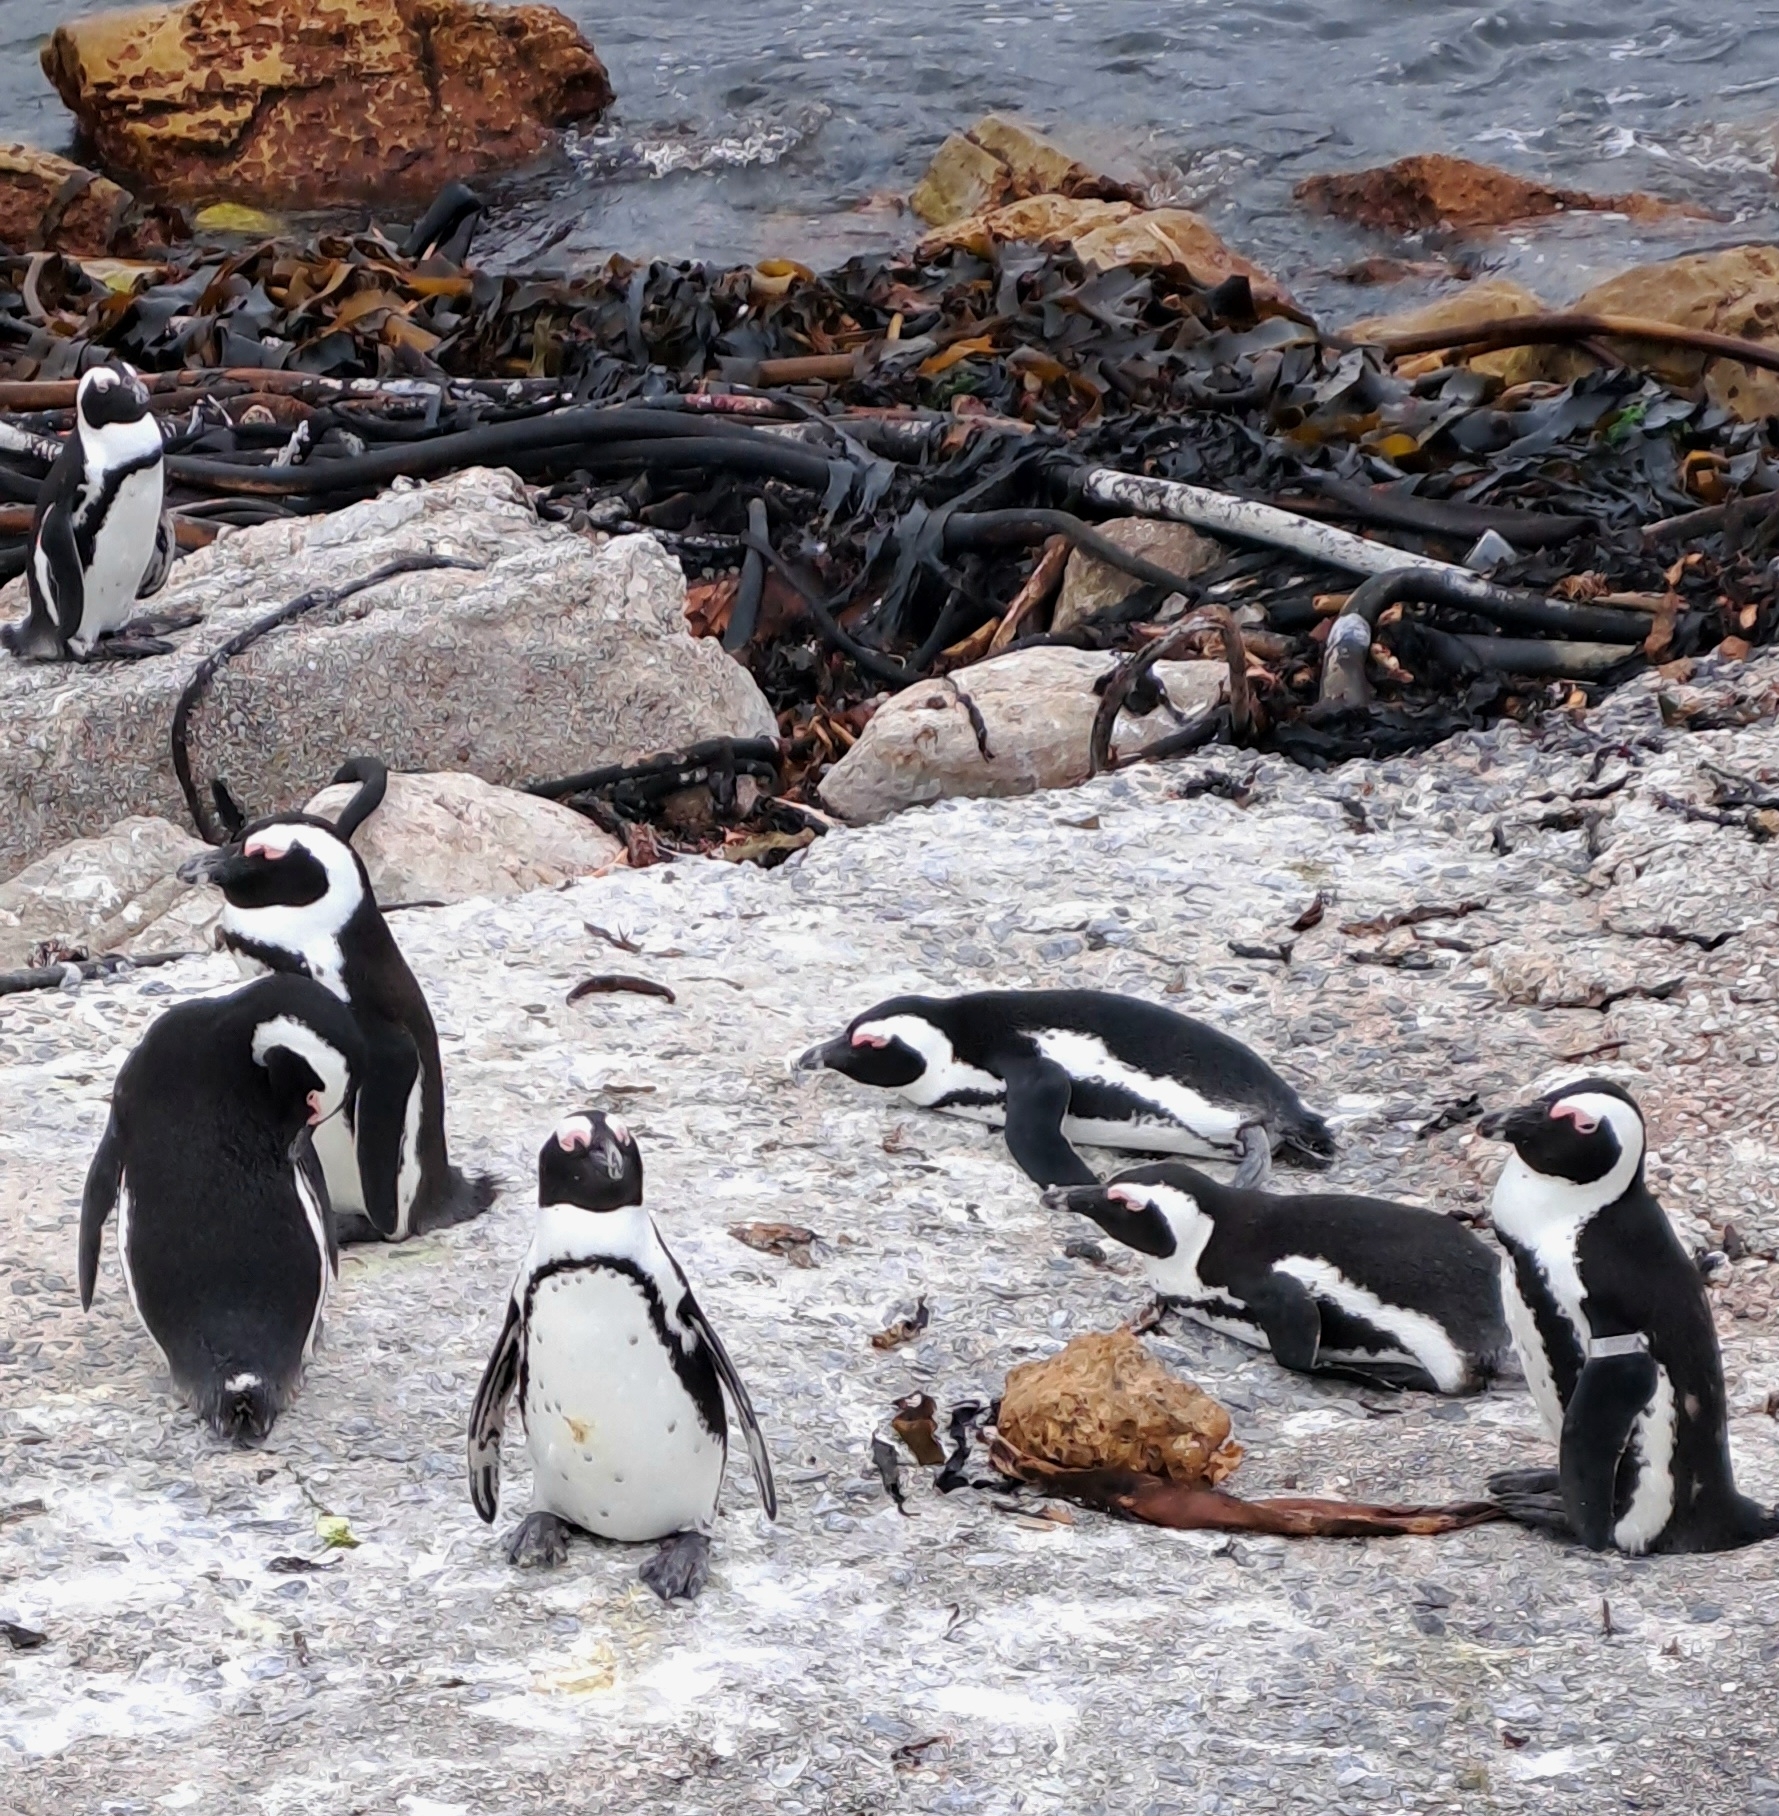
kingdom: Animalia
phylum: Chordata
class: Aves
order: Sphenisciformes
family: Spheniscidae
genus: Spheniscus
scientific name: Spheniscus demersus
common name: African penguin
